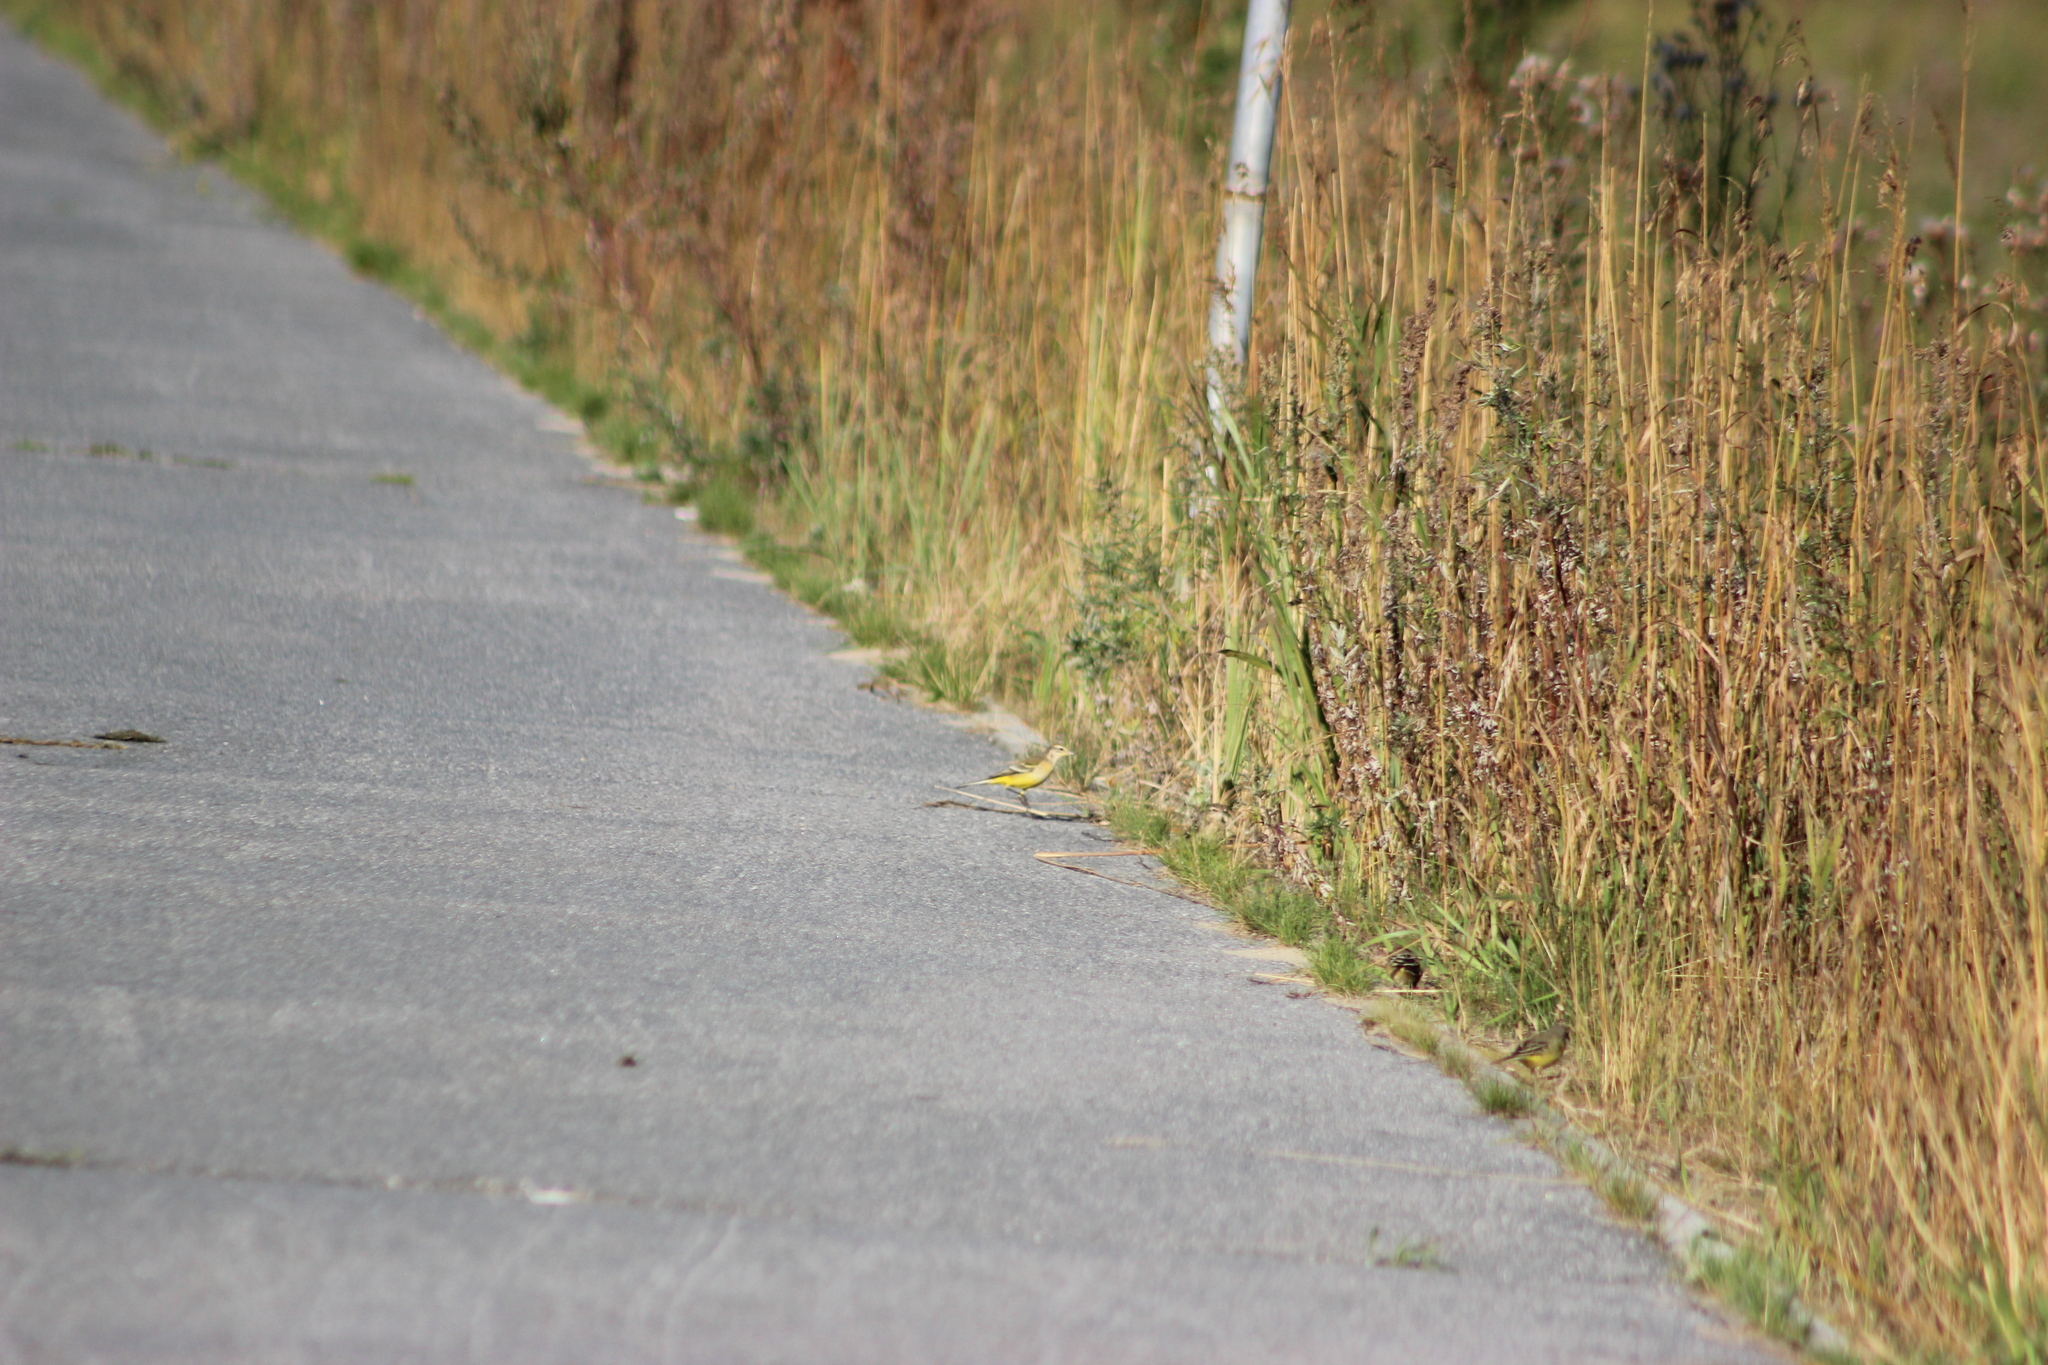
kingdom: Animalia
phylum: Chordata
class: Aves
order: Passeriformes
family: Motacillidae
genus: Motacilla
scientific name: Motacilla flava
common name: Western yellow wagtail
